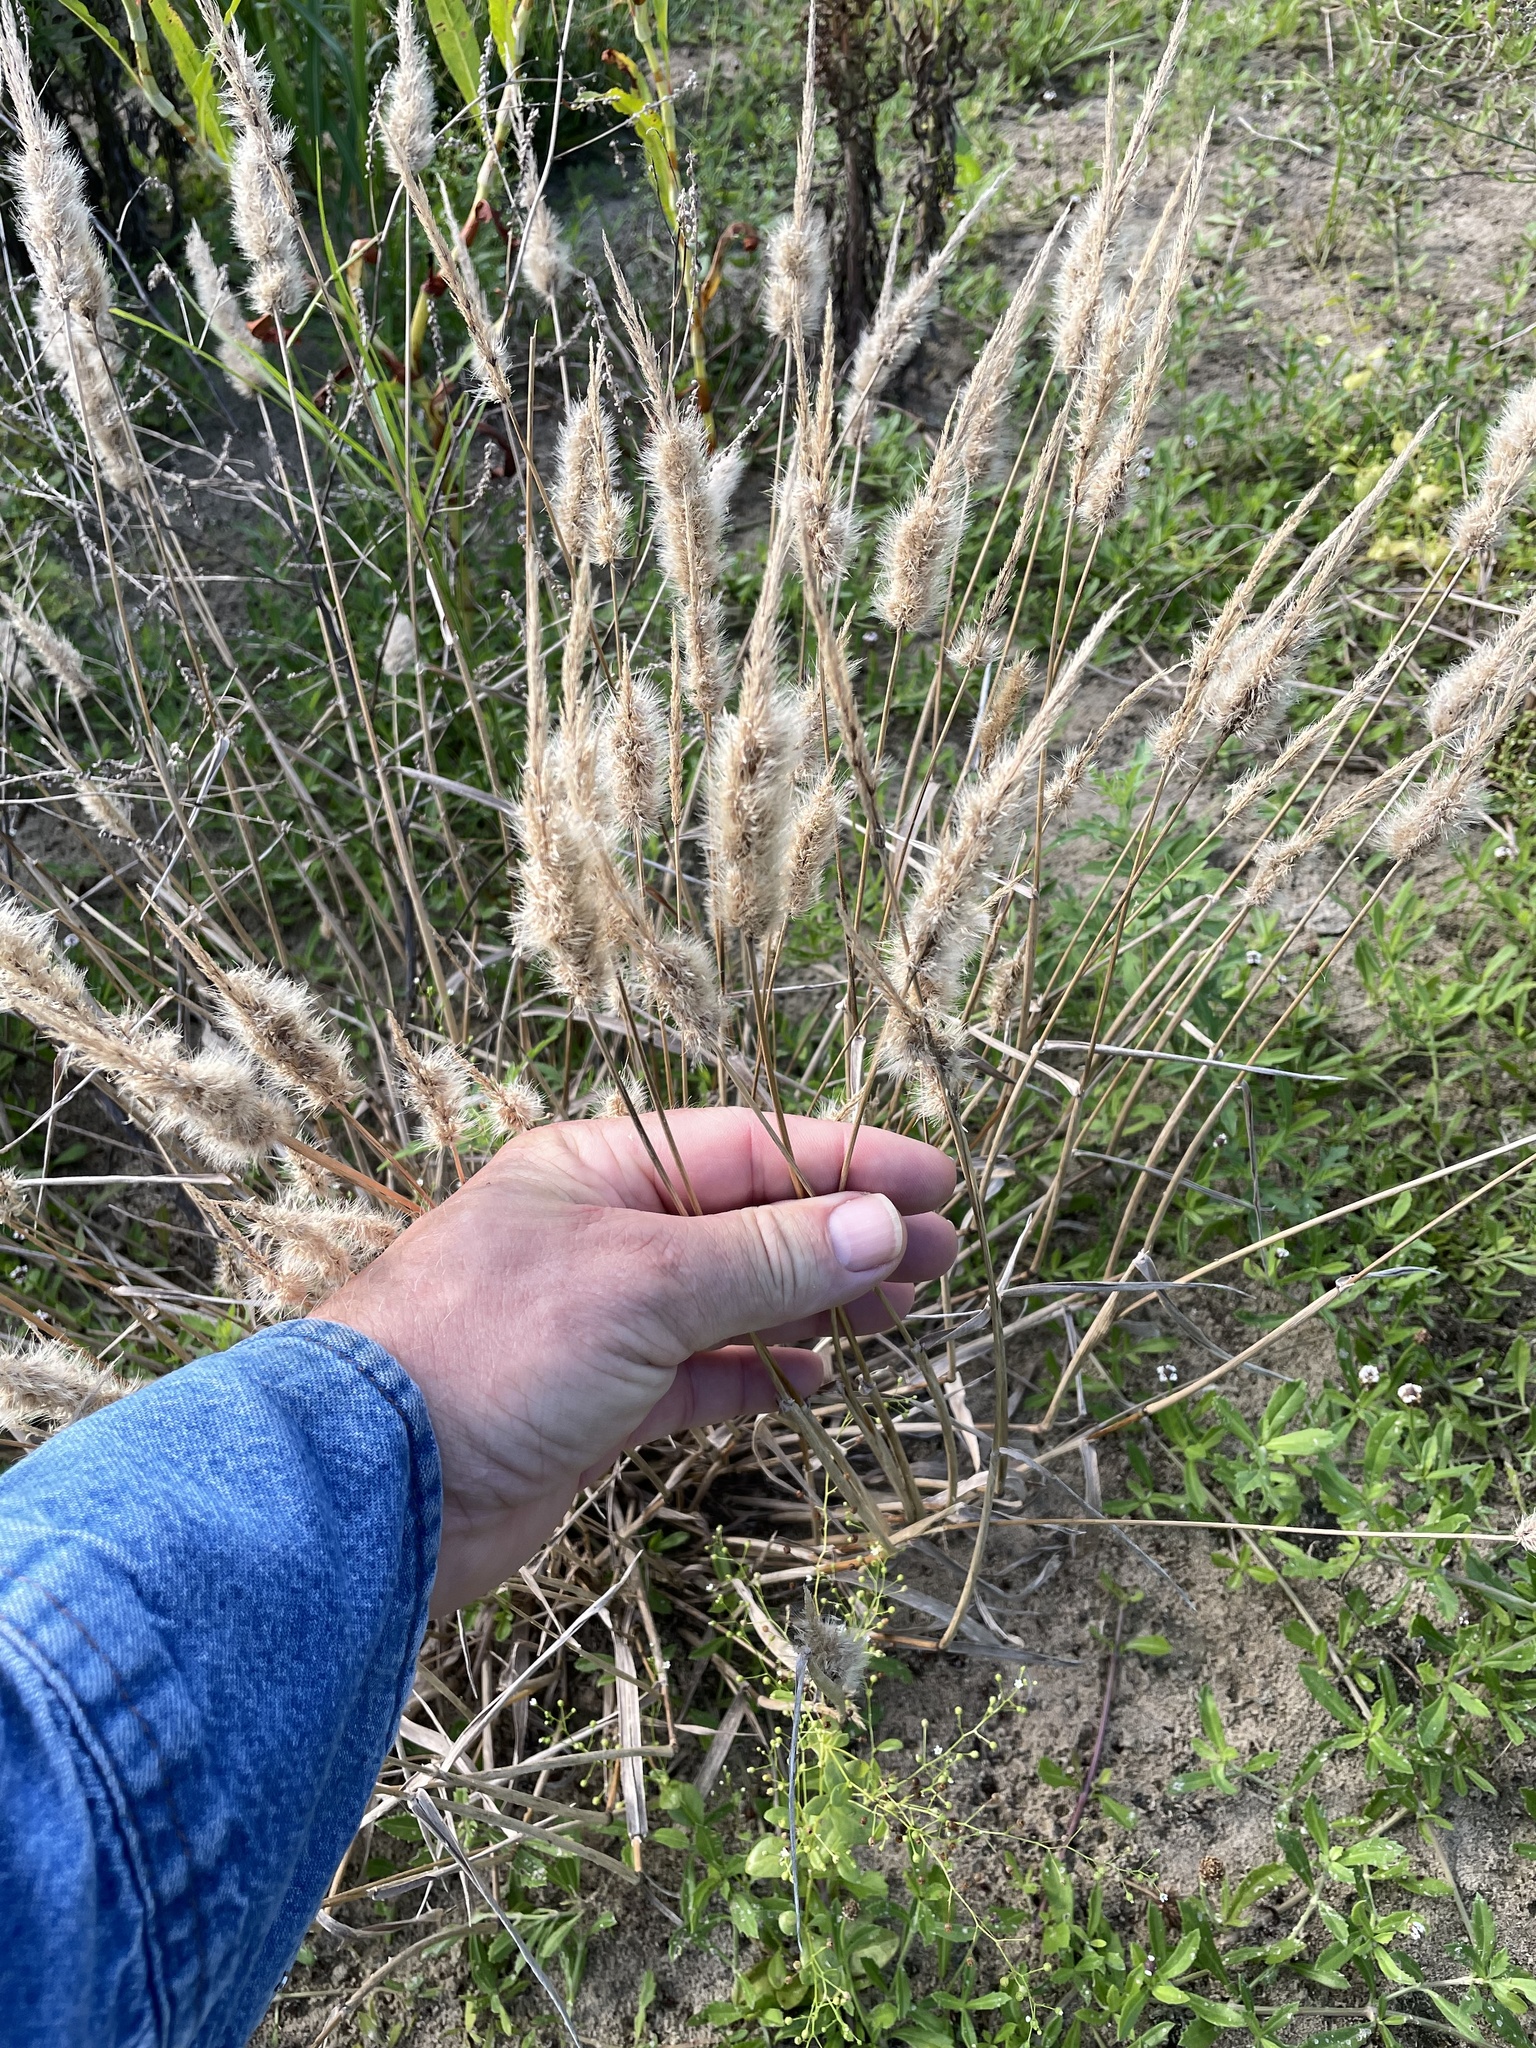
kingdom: Plantae
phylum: Tracheophyta
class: Liliopsida
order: Poales
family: Poaceae
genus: Polypogon
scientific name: Polypogon monspeliensis
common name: Annual rabbitsfoot grass
